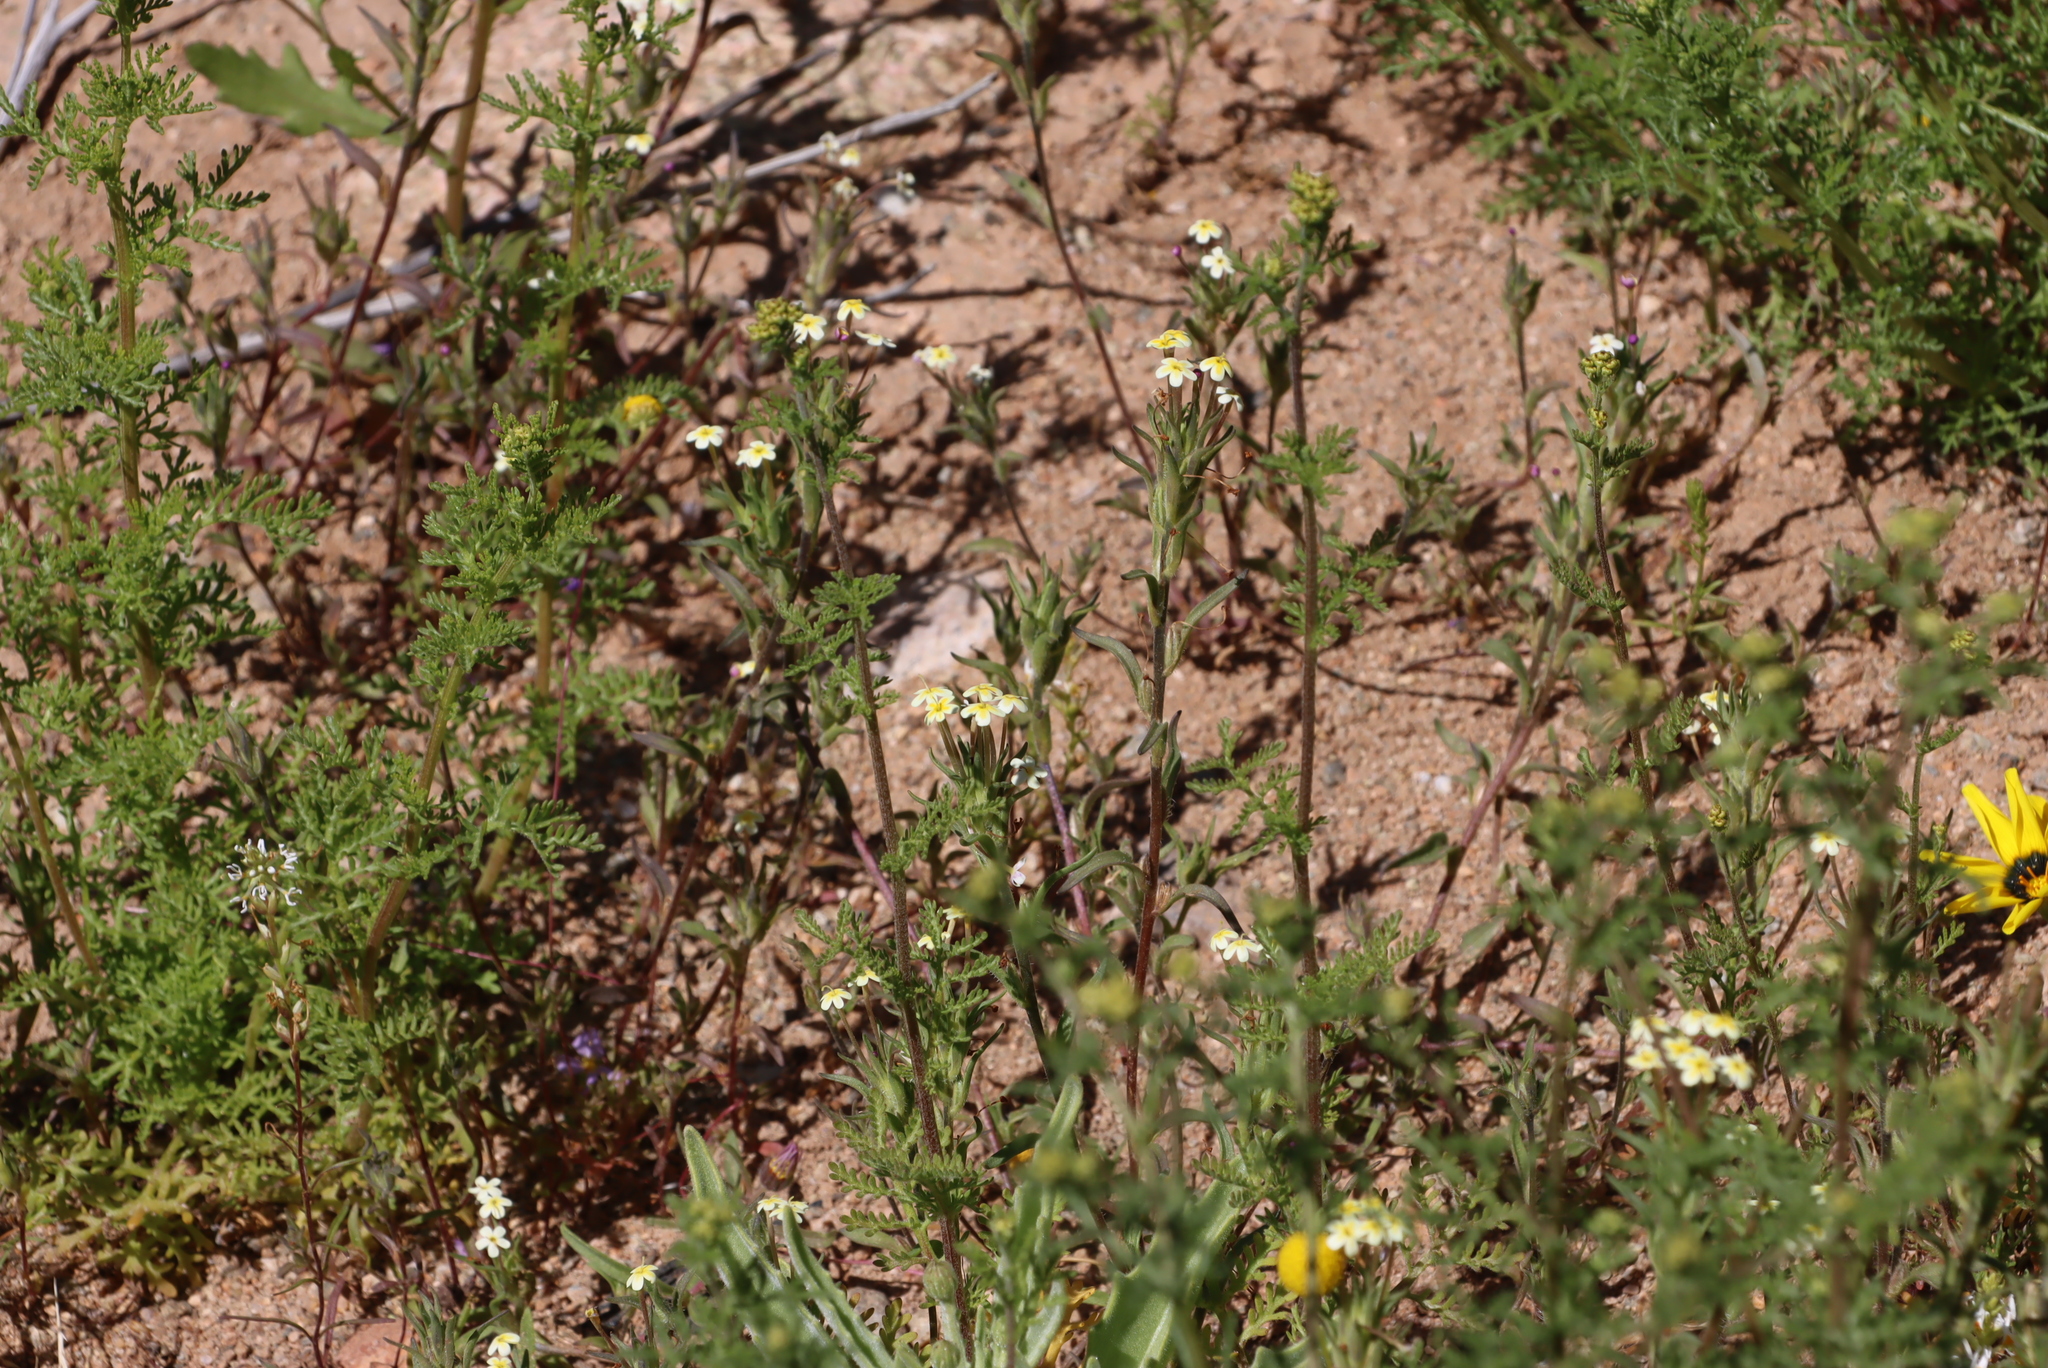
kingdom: Plantae
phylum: Tracheophyta
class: Magnoliopsida
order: Lamiales
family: Scrophulariaceae
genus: Zaluzianskya
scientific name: Zaluzianskya benthamiana
